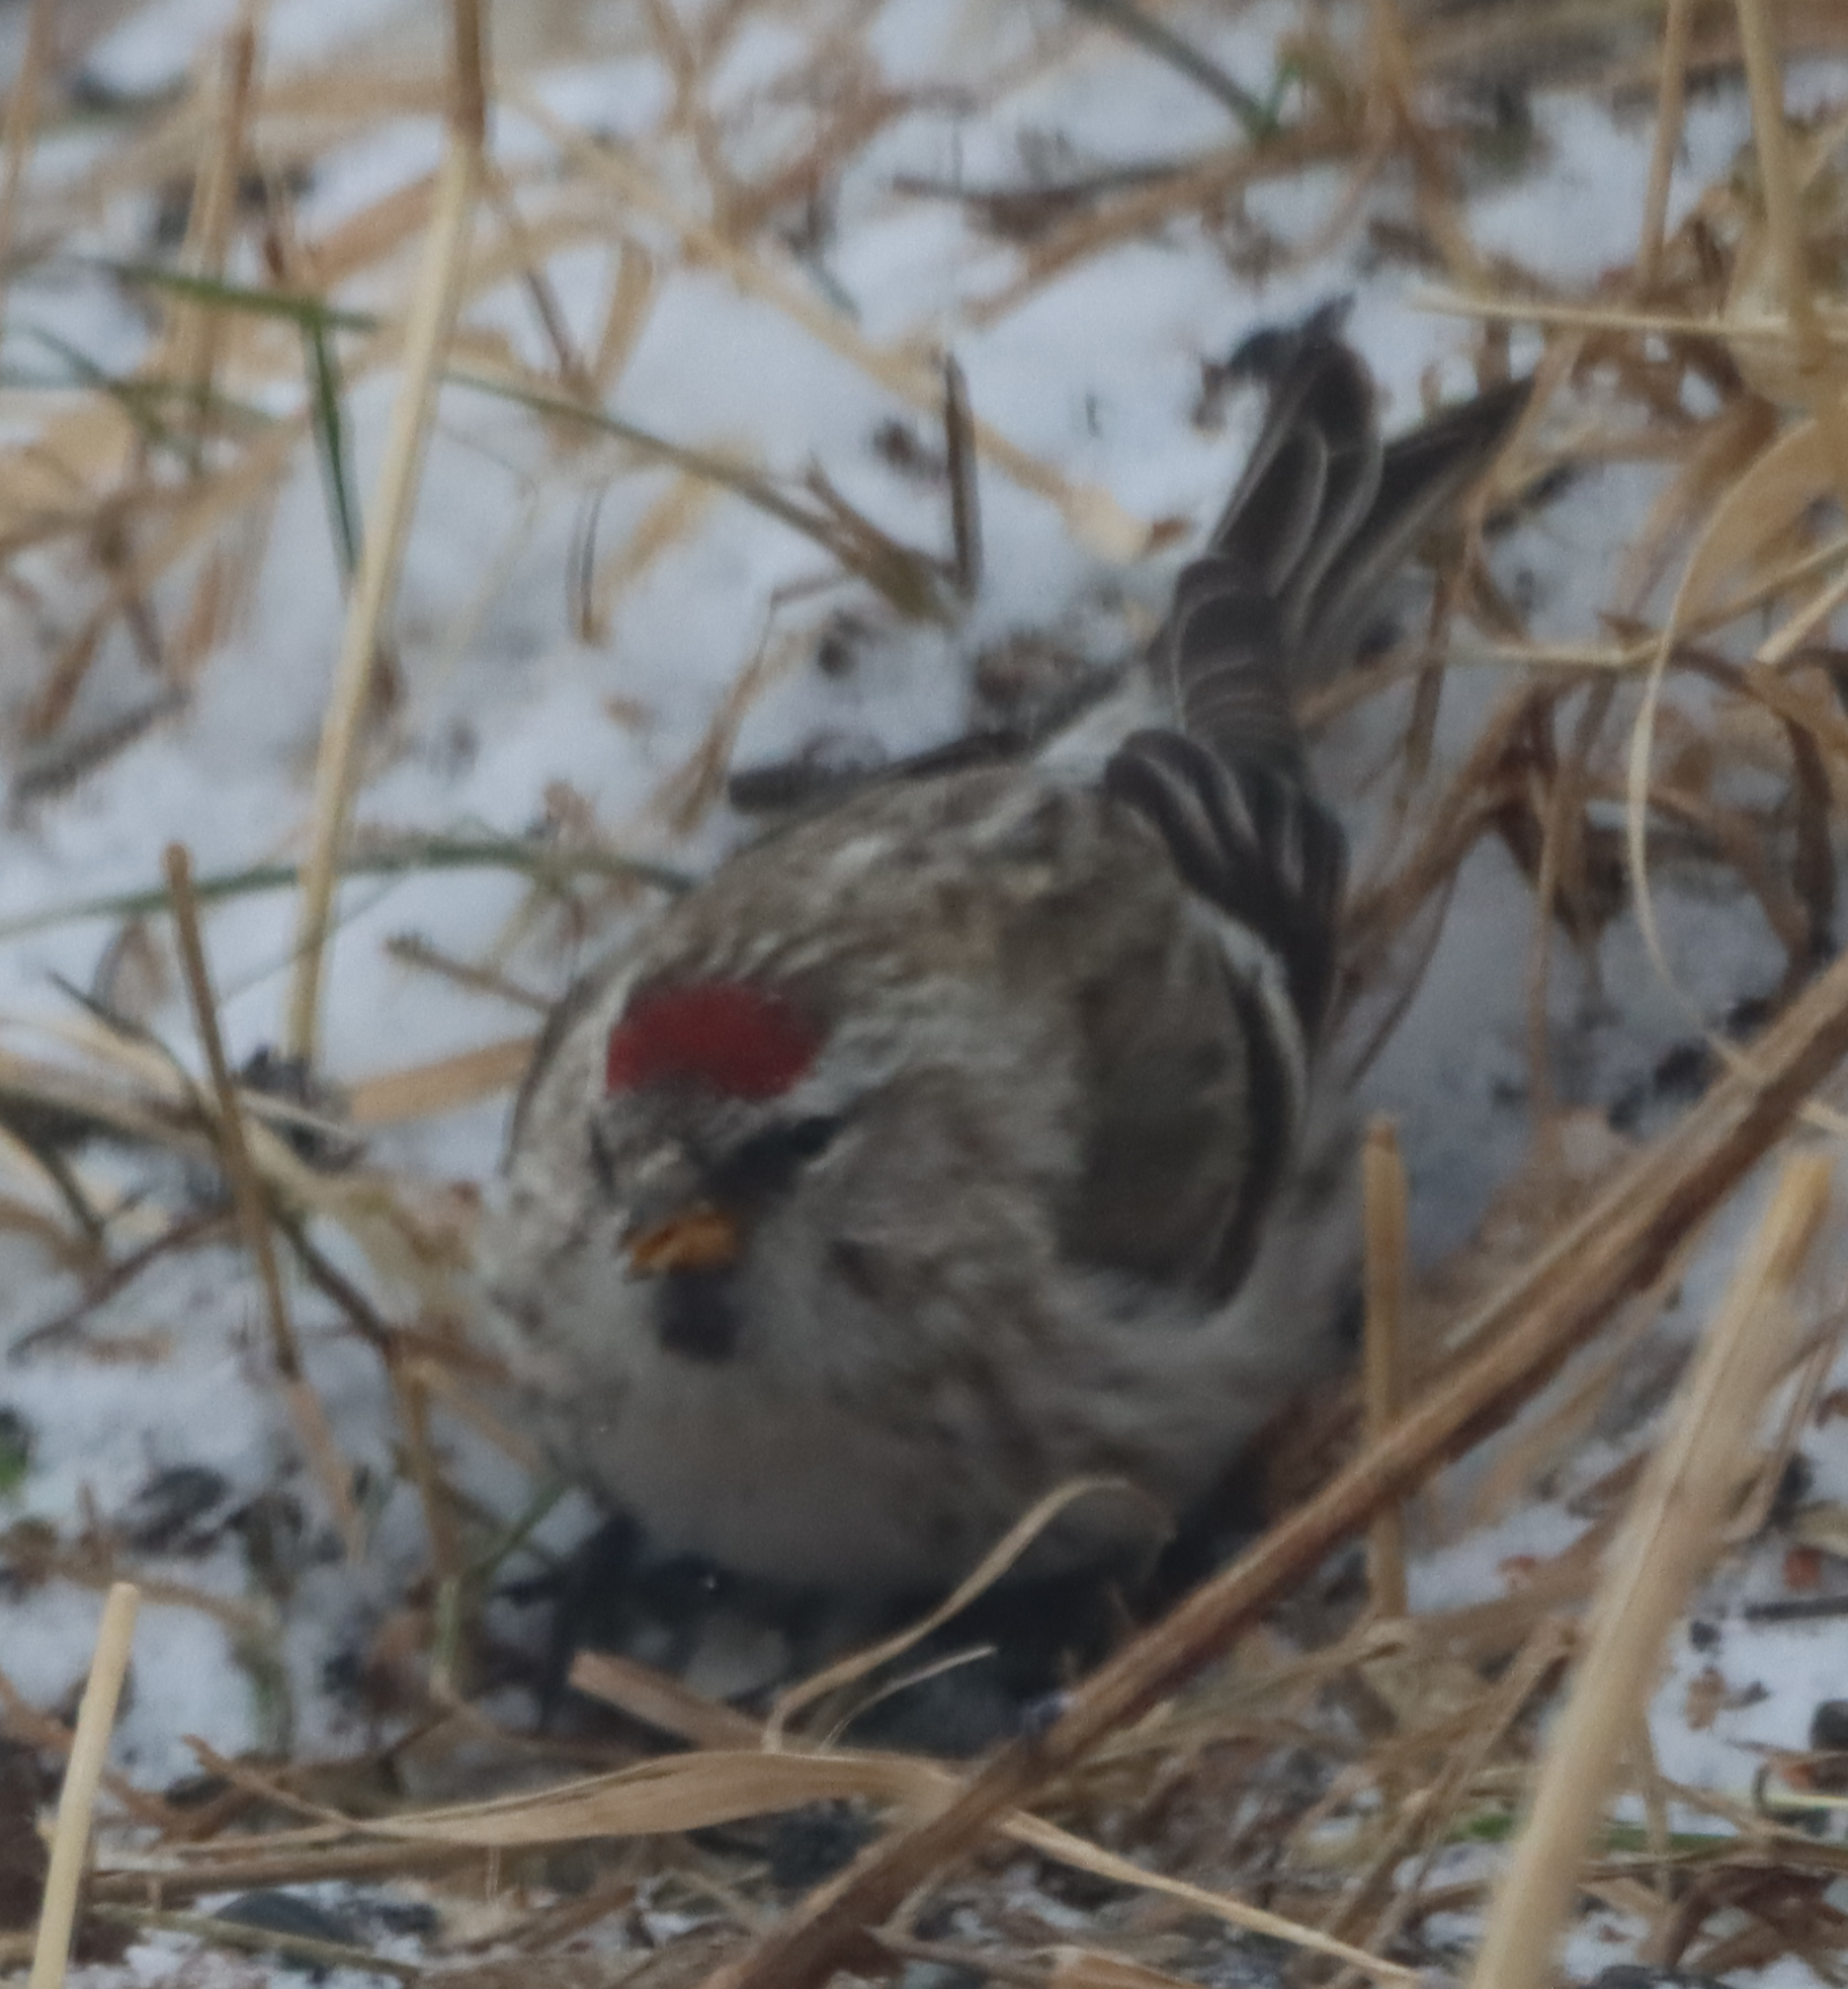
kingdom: Animalia
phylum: Chordata
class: Aves
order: Passeriformes
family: Fringillidae
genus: Acanthis
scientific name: Acanthis flammea
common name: Common redpoll
